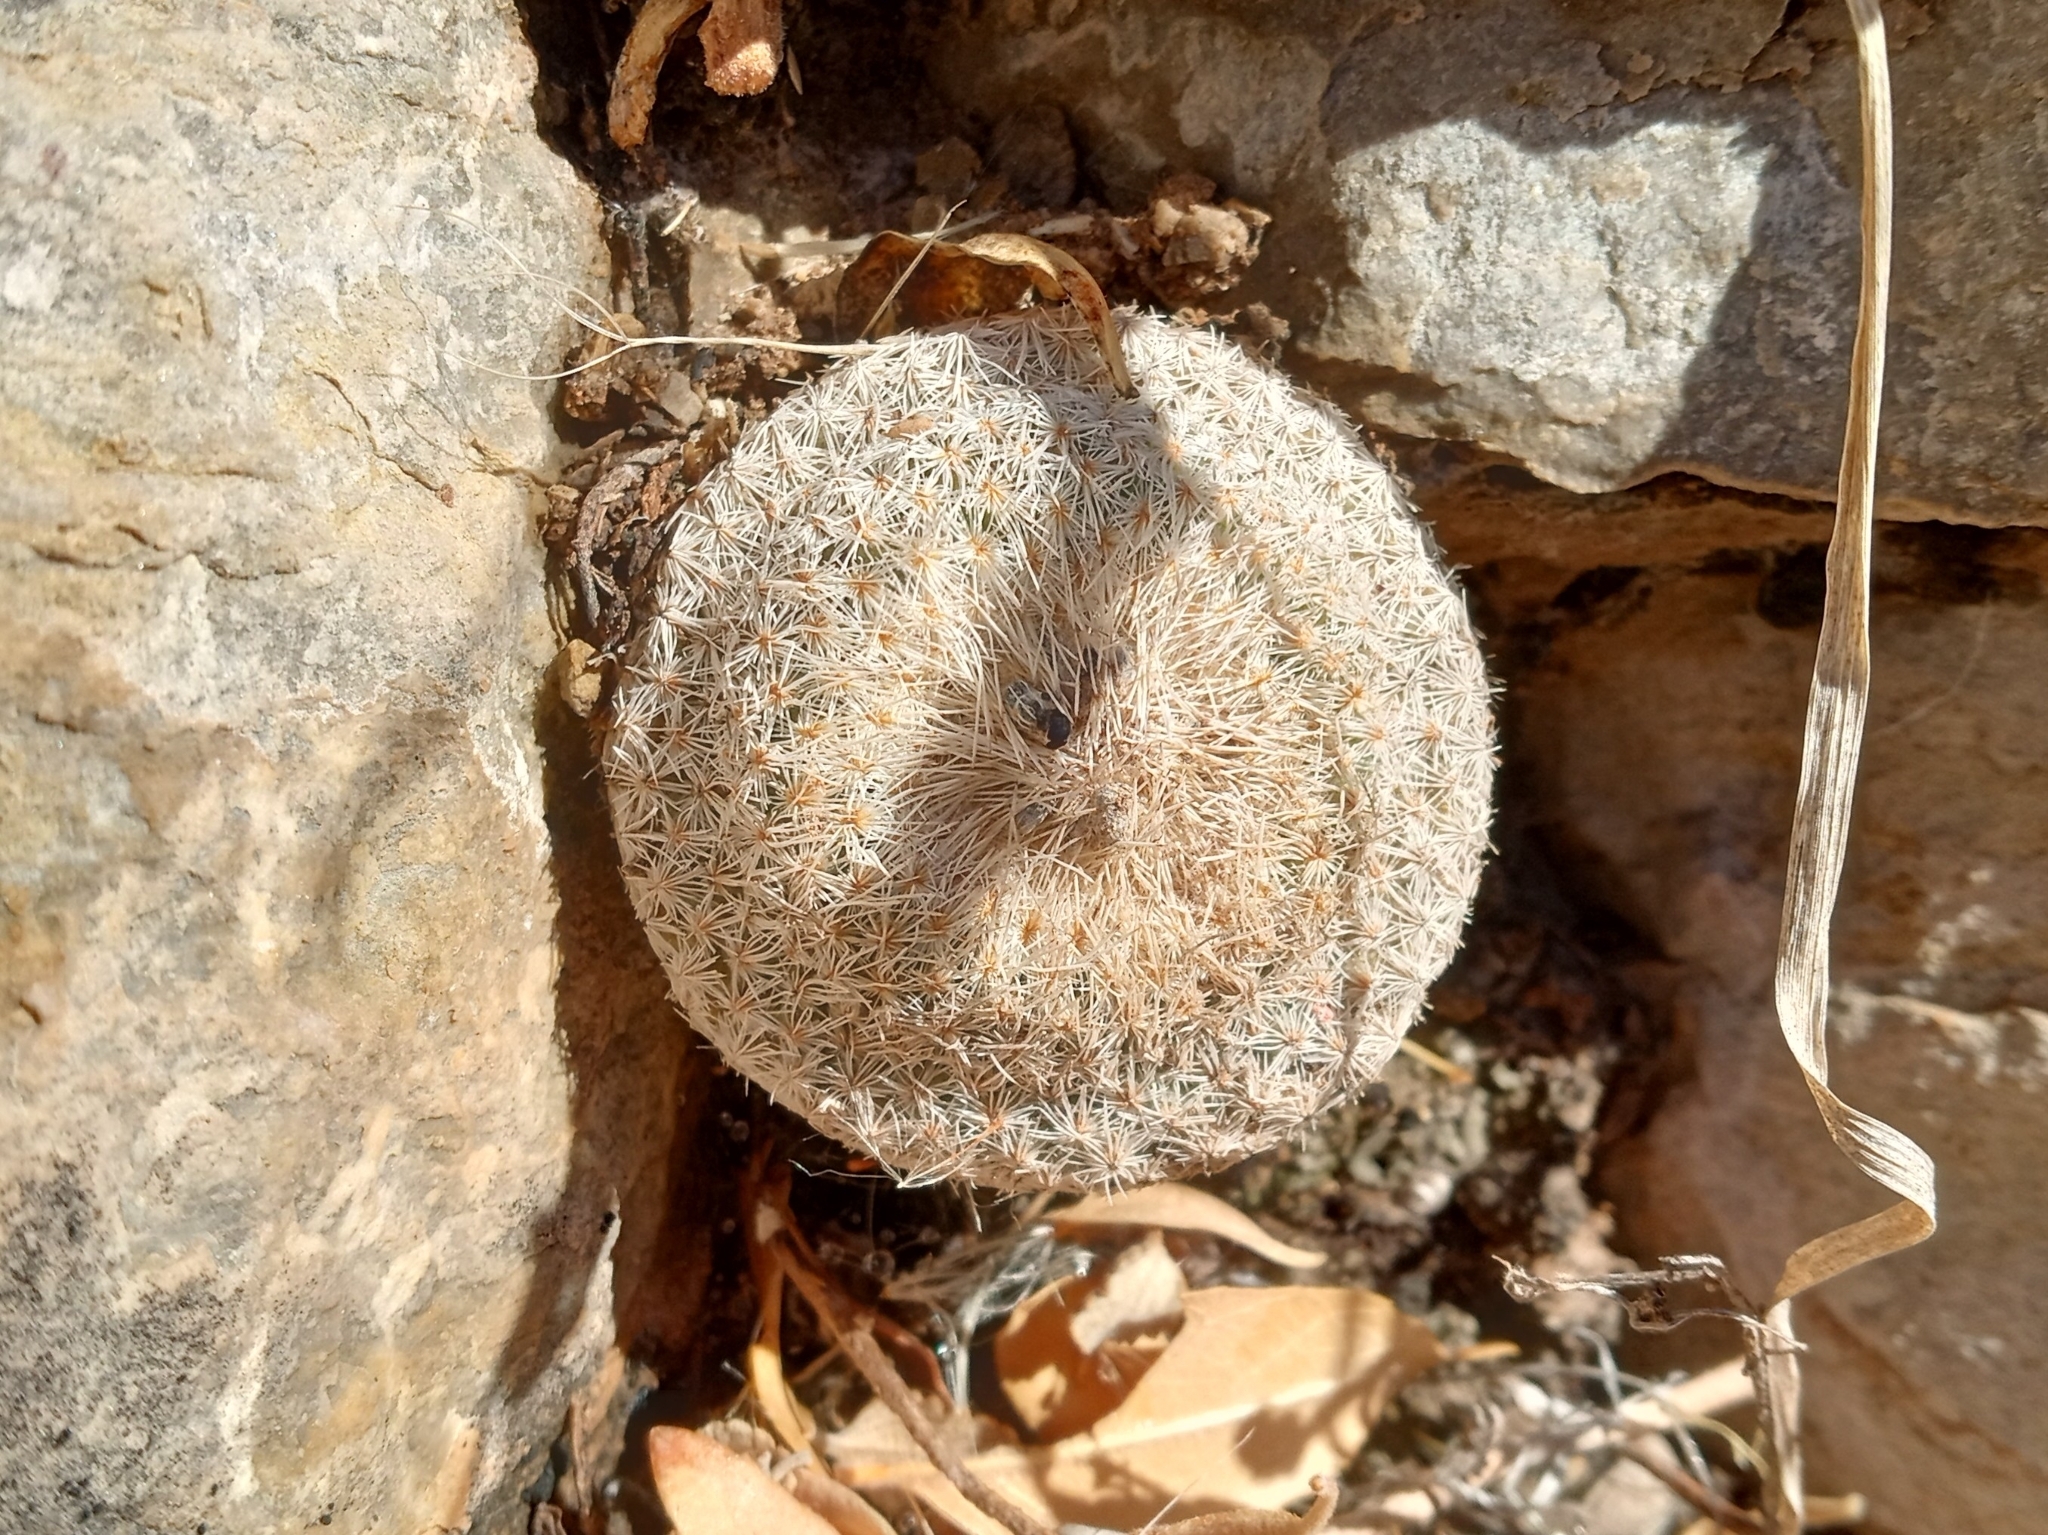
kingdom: Plantae
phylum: Tracheophyta
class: Magnoliopsida
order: Caryophyllales
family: Cactaceae
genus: Epithelantha
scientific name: Epithelantha micromeris
